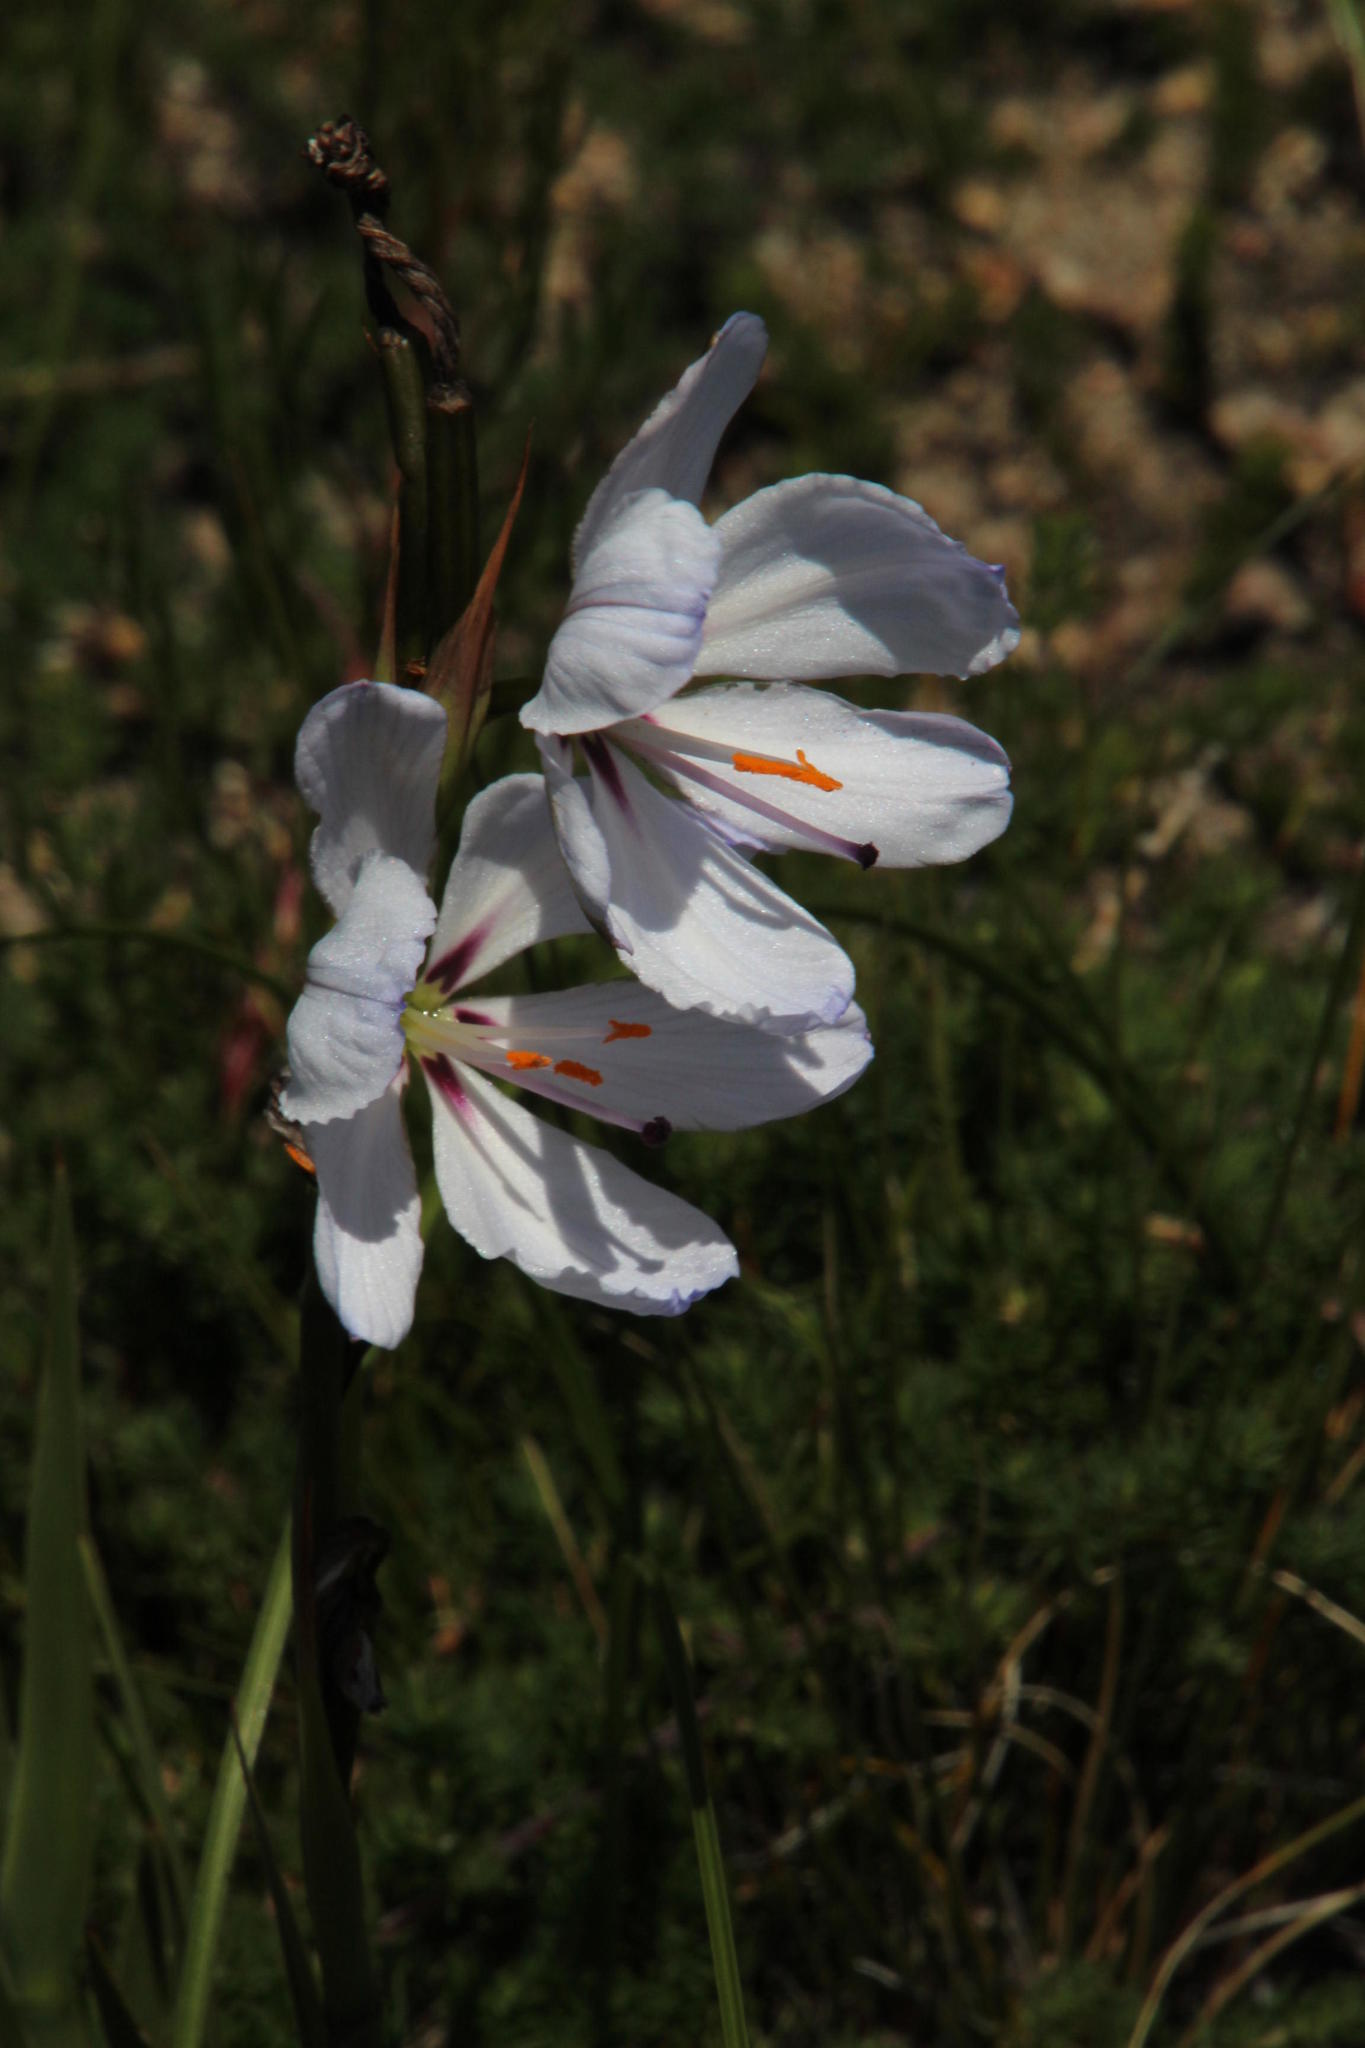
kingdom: Plantae
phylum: Tracheophyta
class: Liliopsida
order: Asparagales
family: Iridaceae
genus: Aristea
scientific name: Aristea spiralis
